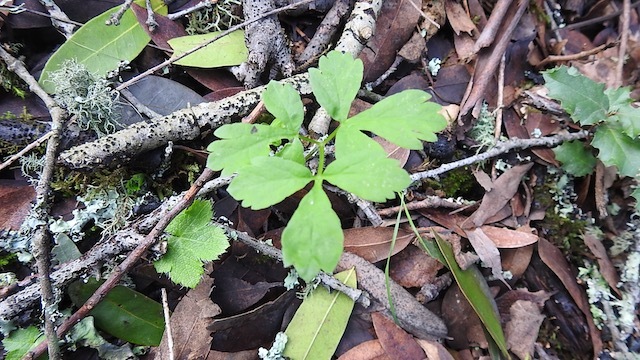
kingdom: Plantae
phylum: Tracheophyta
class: Magnoliopsida
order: Apiales
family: Apiaceae
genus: Osmorhiza
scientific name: Osmorhiza berteroi
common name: Mountain sweet cicely
